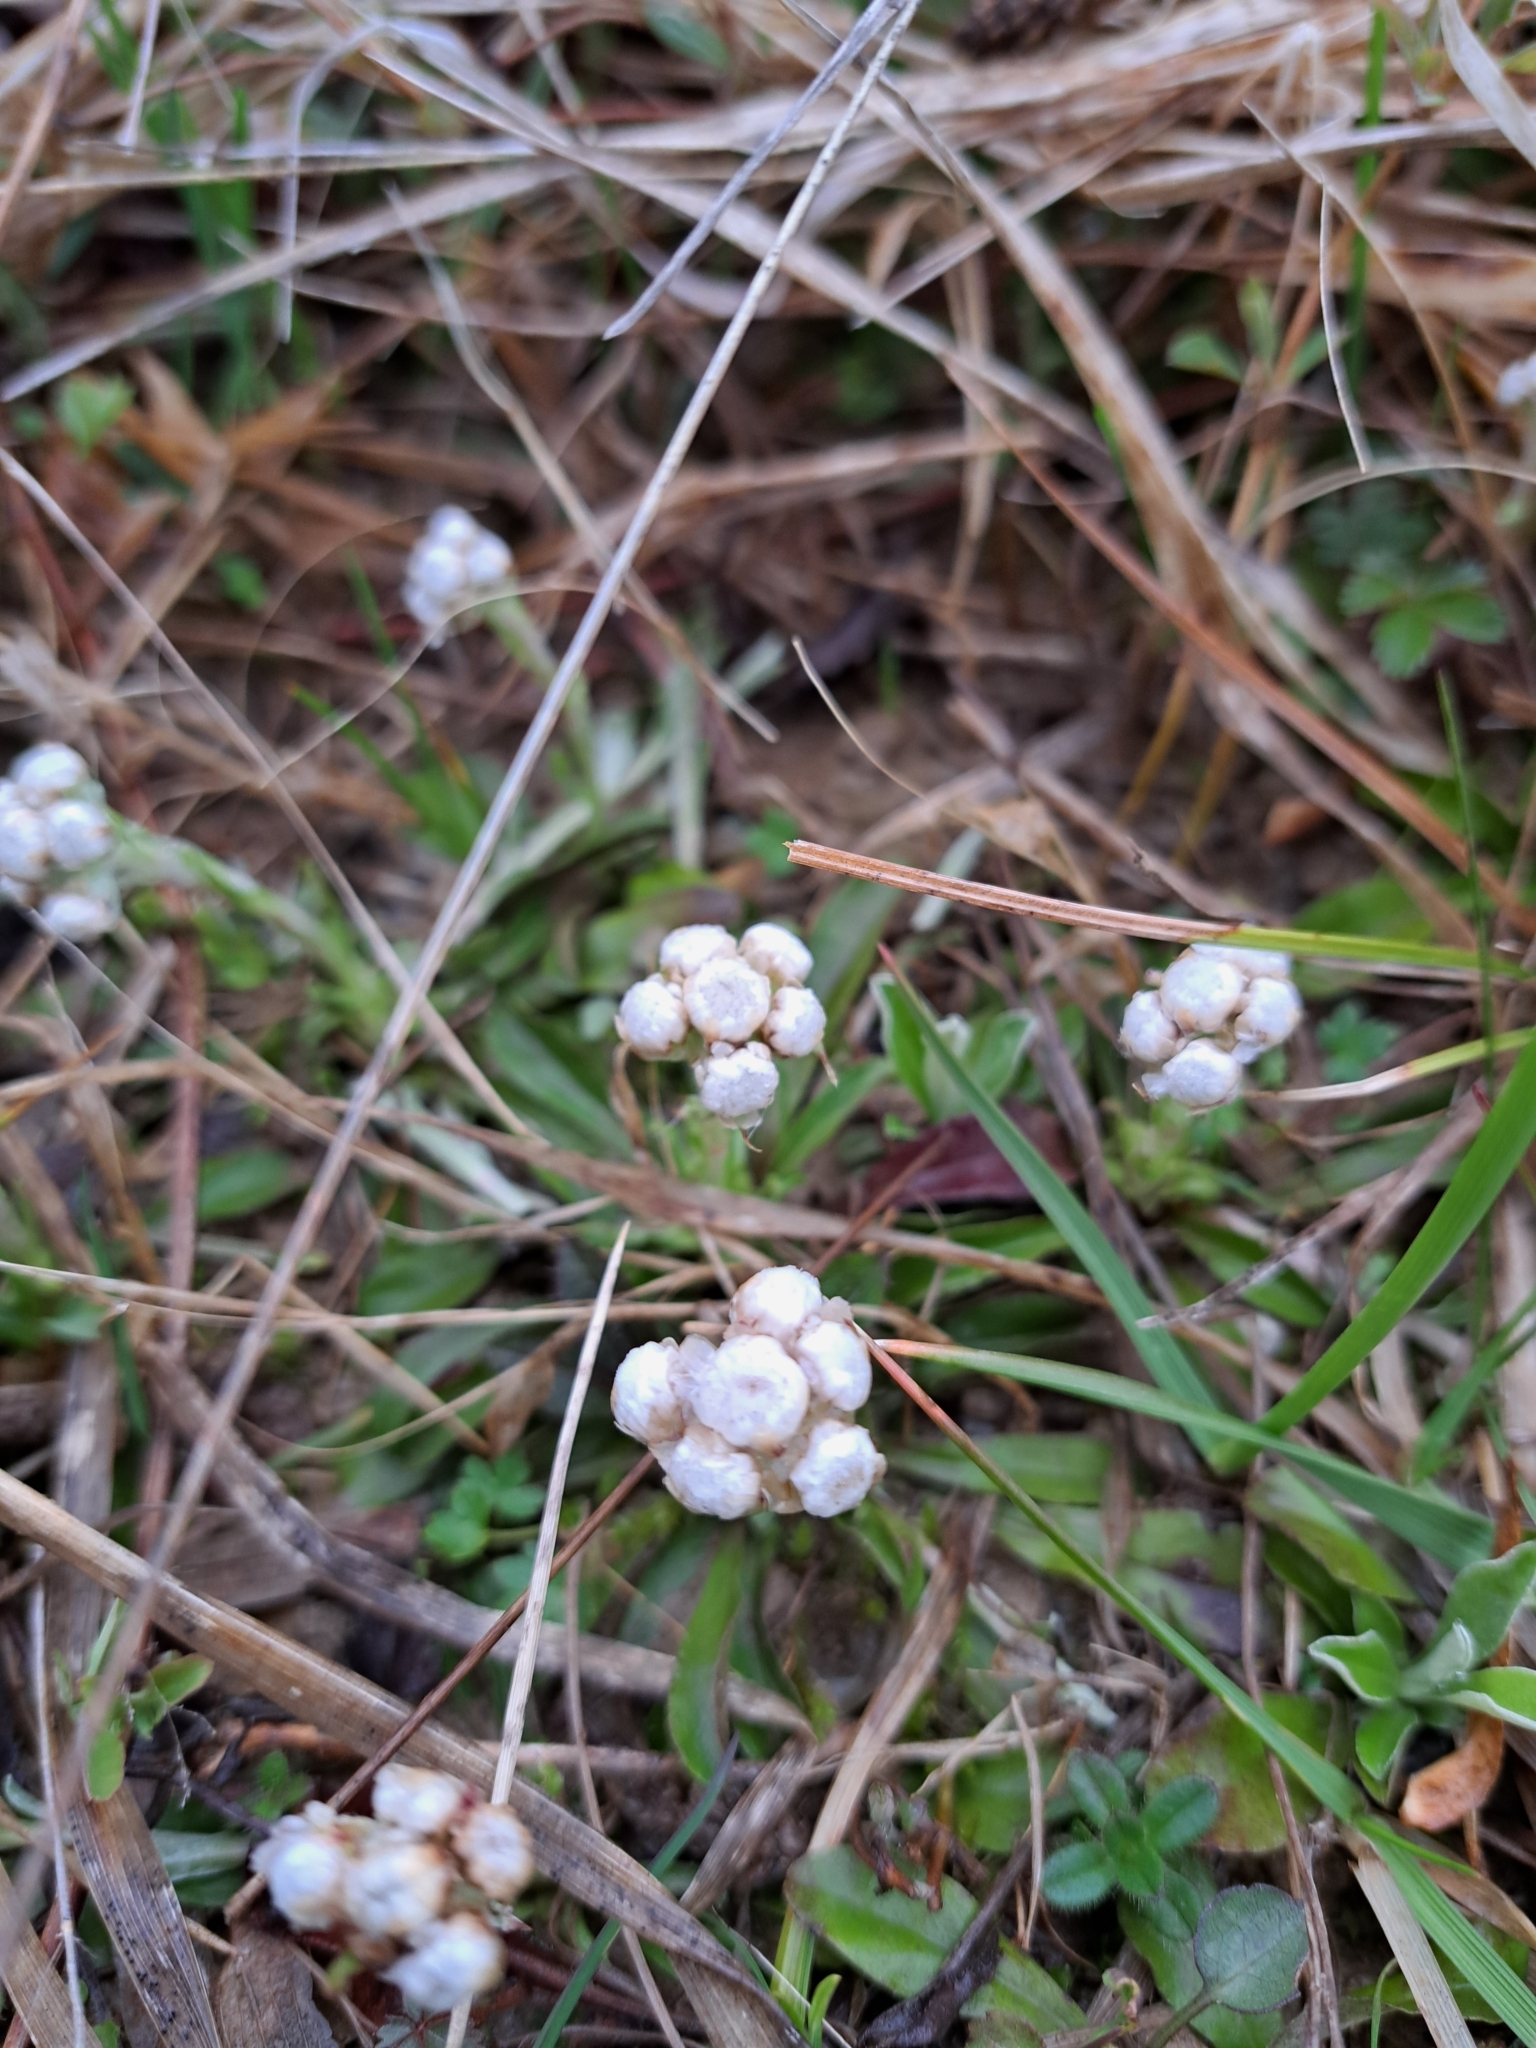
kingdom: Plantae
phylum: Tracheophyta
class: Magnoliopsida
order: Asterales
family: Asteraceae
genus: Antennaria
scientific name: Antennaria neglecta
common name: Field pussytoes
